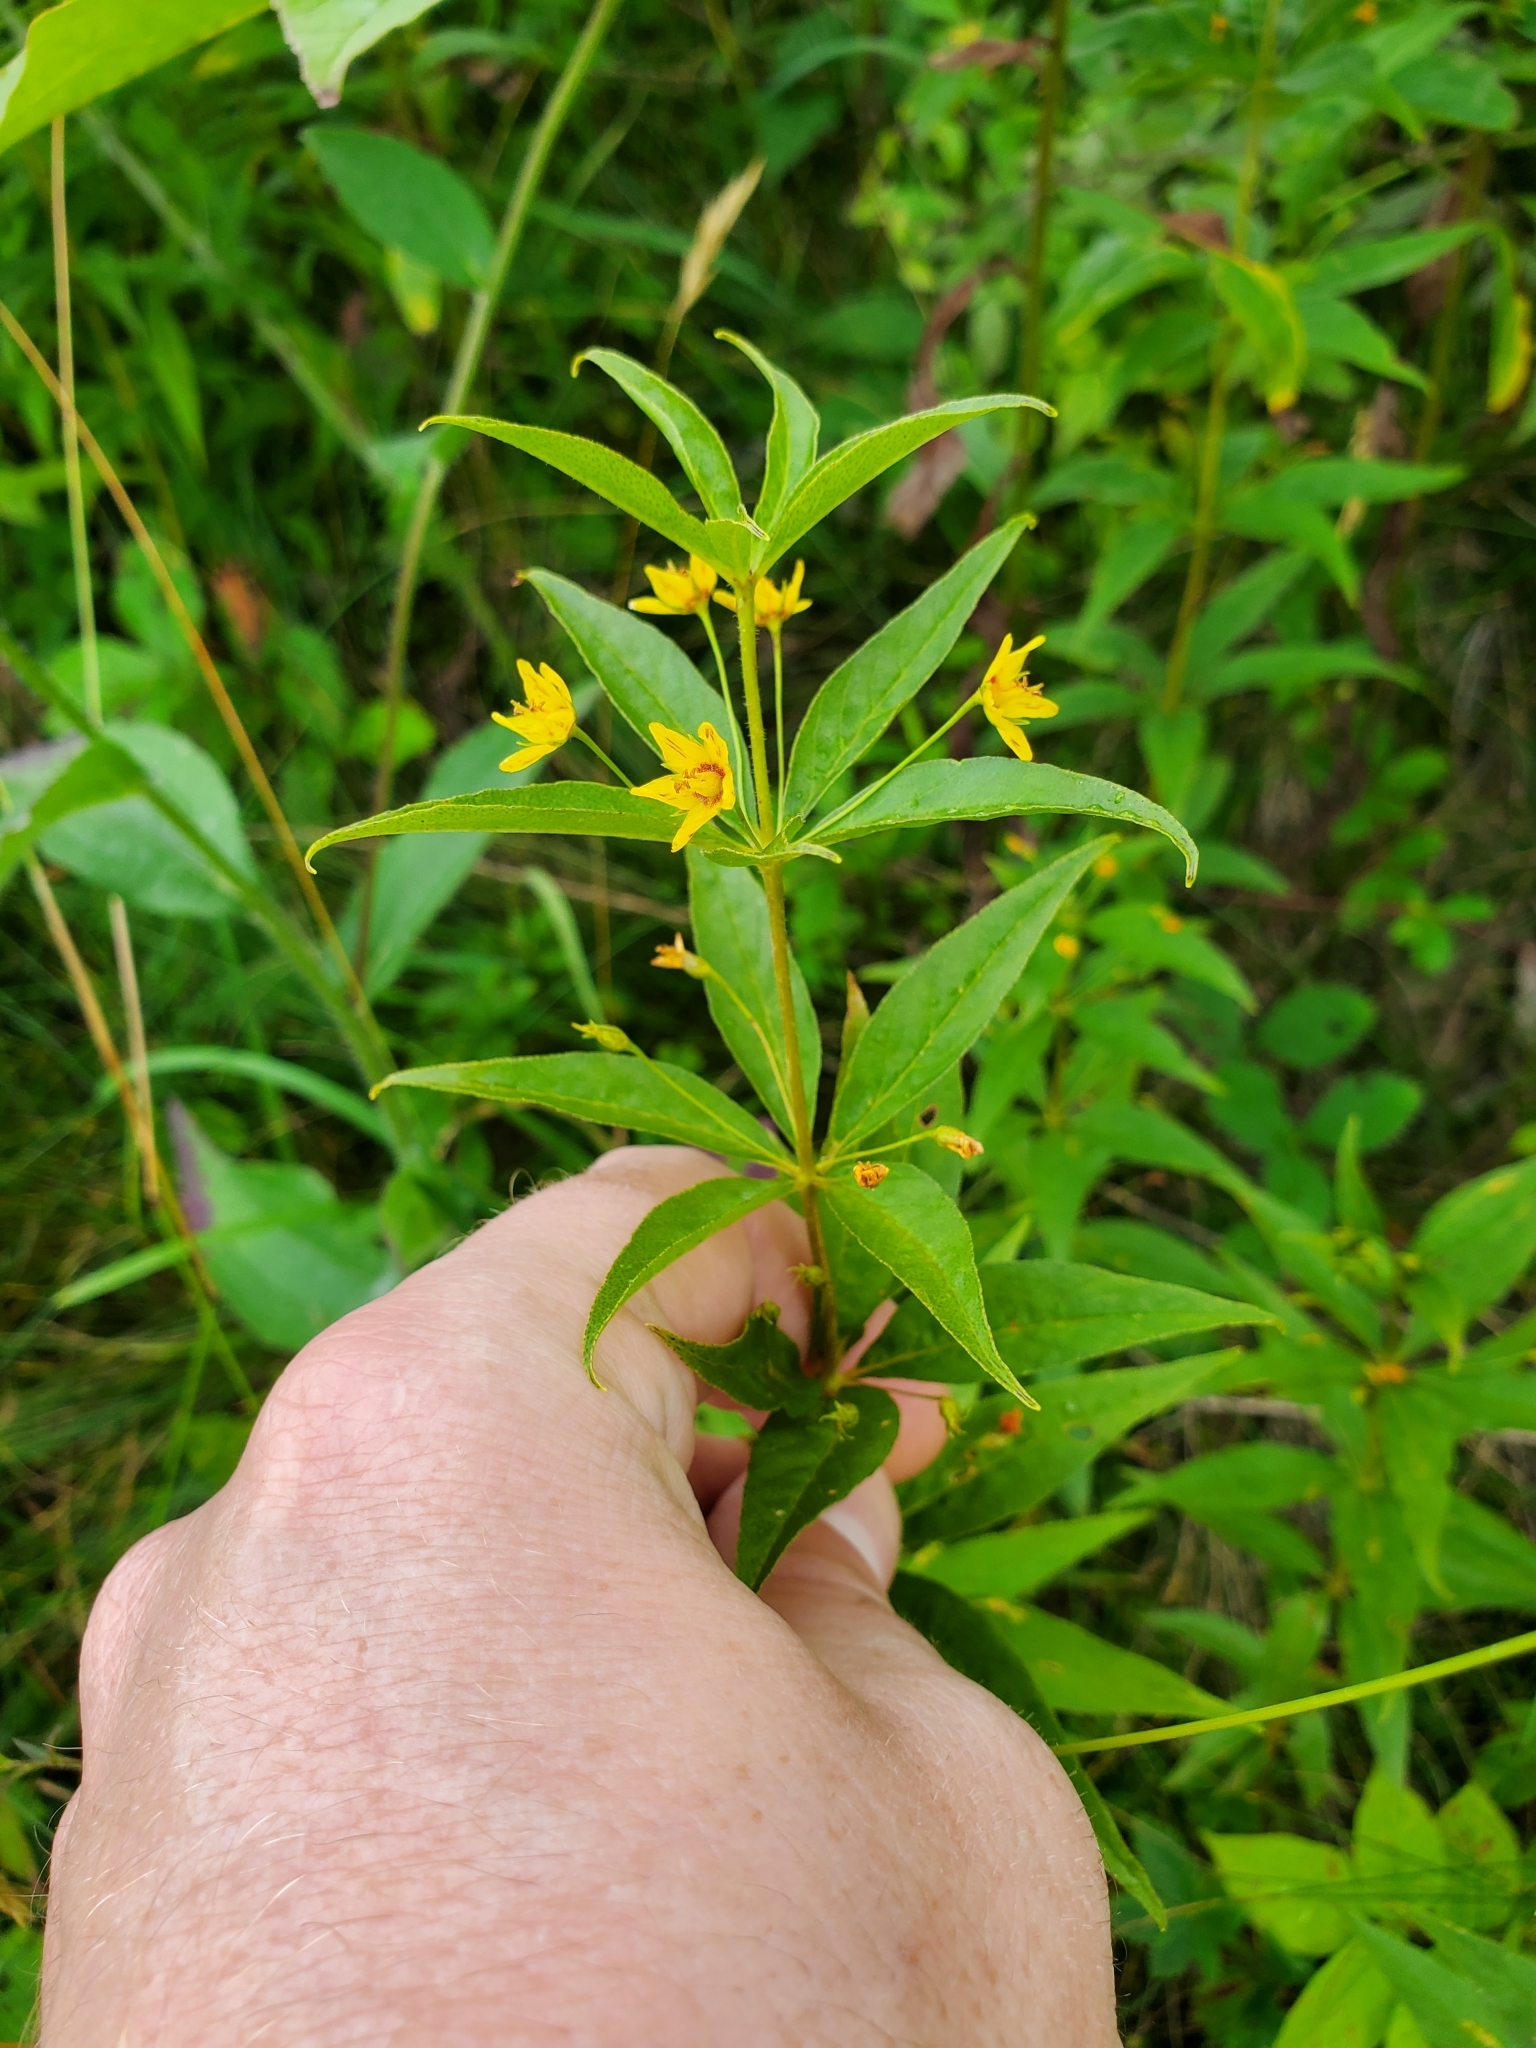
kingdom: Plantae
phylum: Tracheophyta
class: Magnoliopsida
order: Ericales
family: Primulaceae
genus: Lysimachia
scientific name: Lysimachia quadrifolia
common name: Whorled loosestrife
